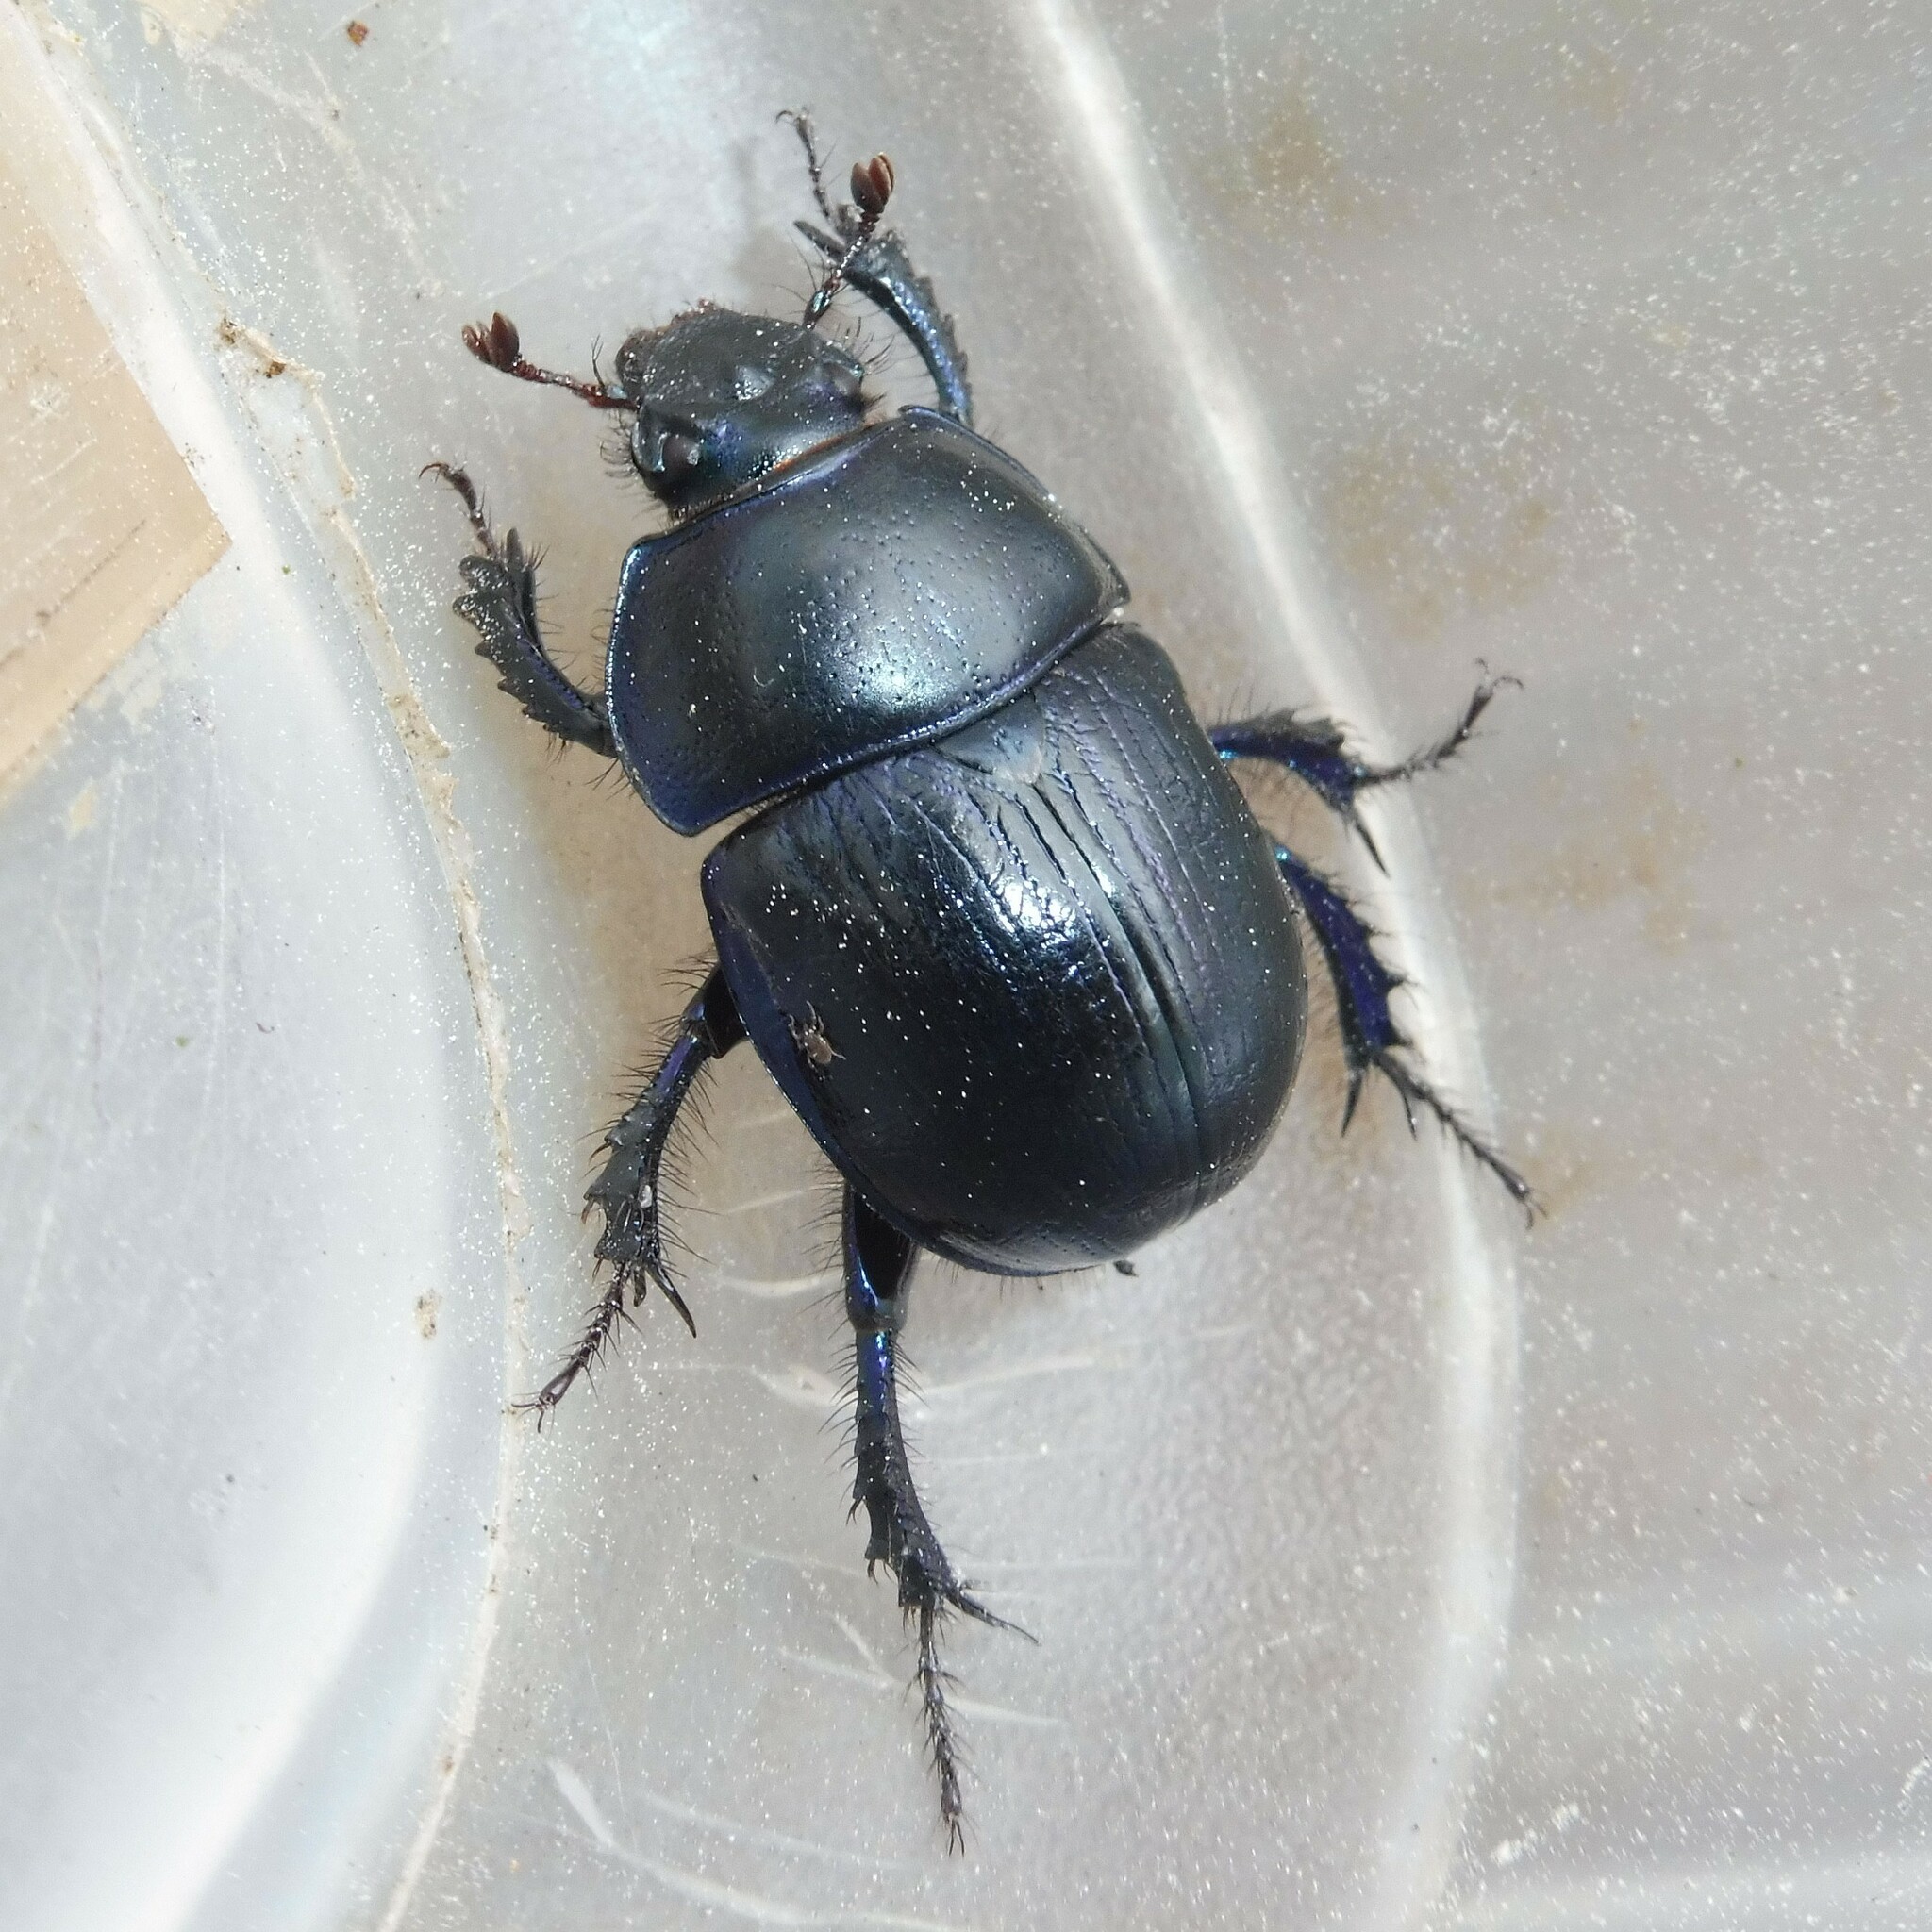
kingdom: Animalia
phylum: Arthropoda
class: Insecta
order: Coleoptera
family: Geotrupidae
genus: Anoplotrupes
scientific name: Anoplotrupes stercorosus
